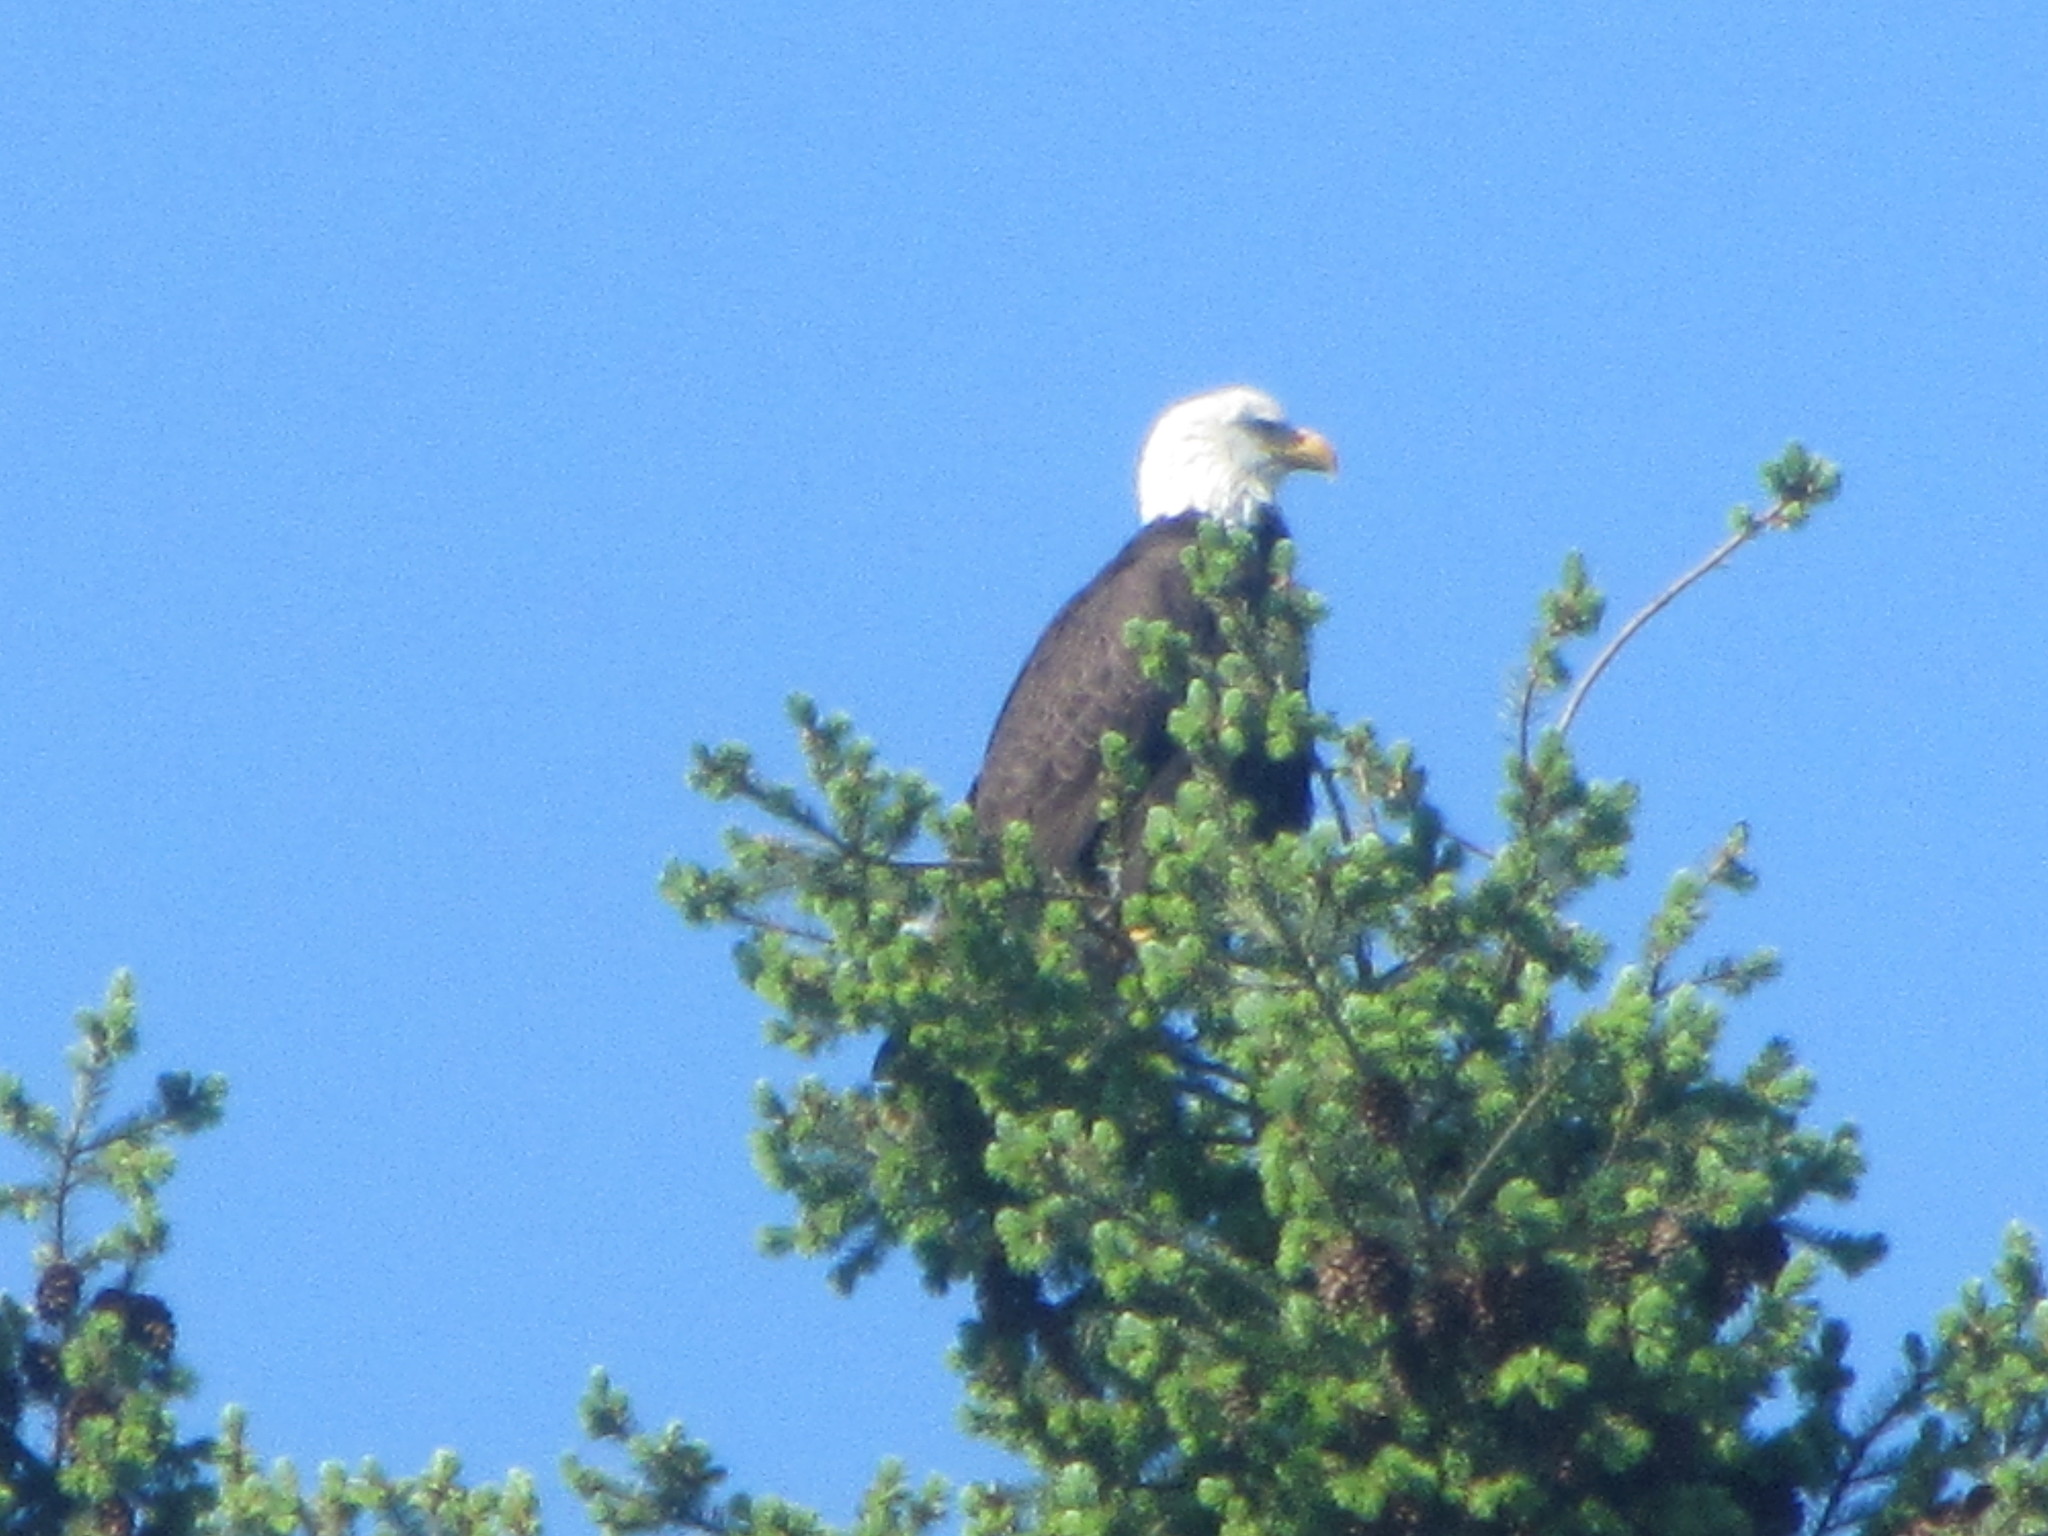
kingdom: Animalia
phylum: Chordata
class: Aves
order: Accipitriformes
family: Accipitridae
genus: Haliaeetus
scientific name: Haliaeetus leucocephalus
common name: Bald eagle
